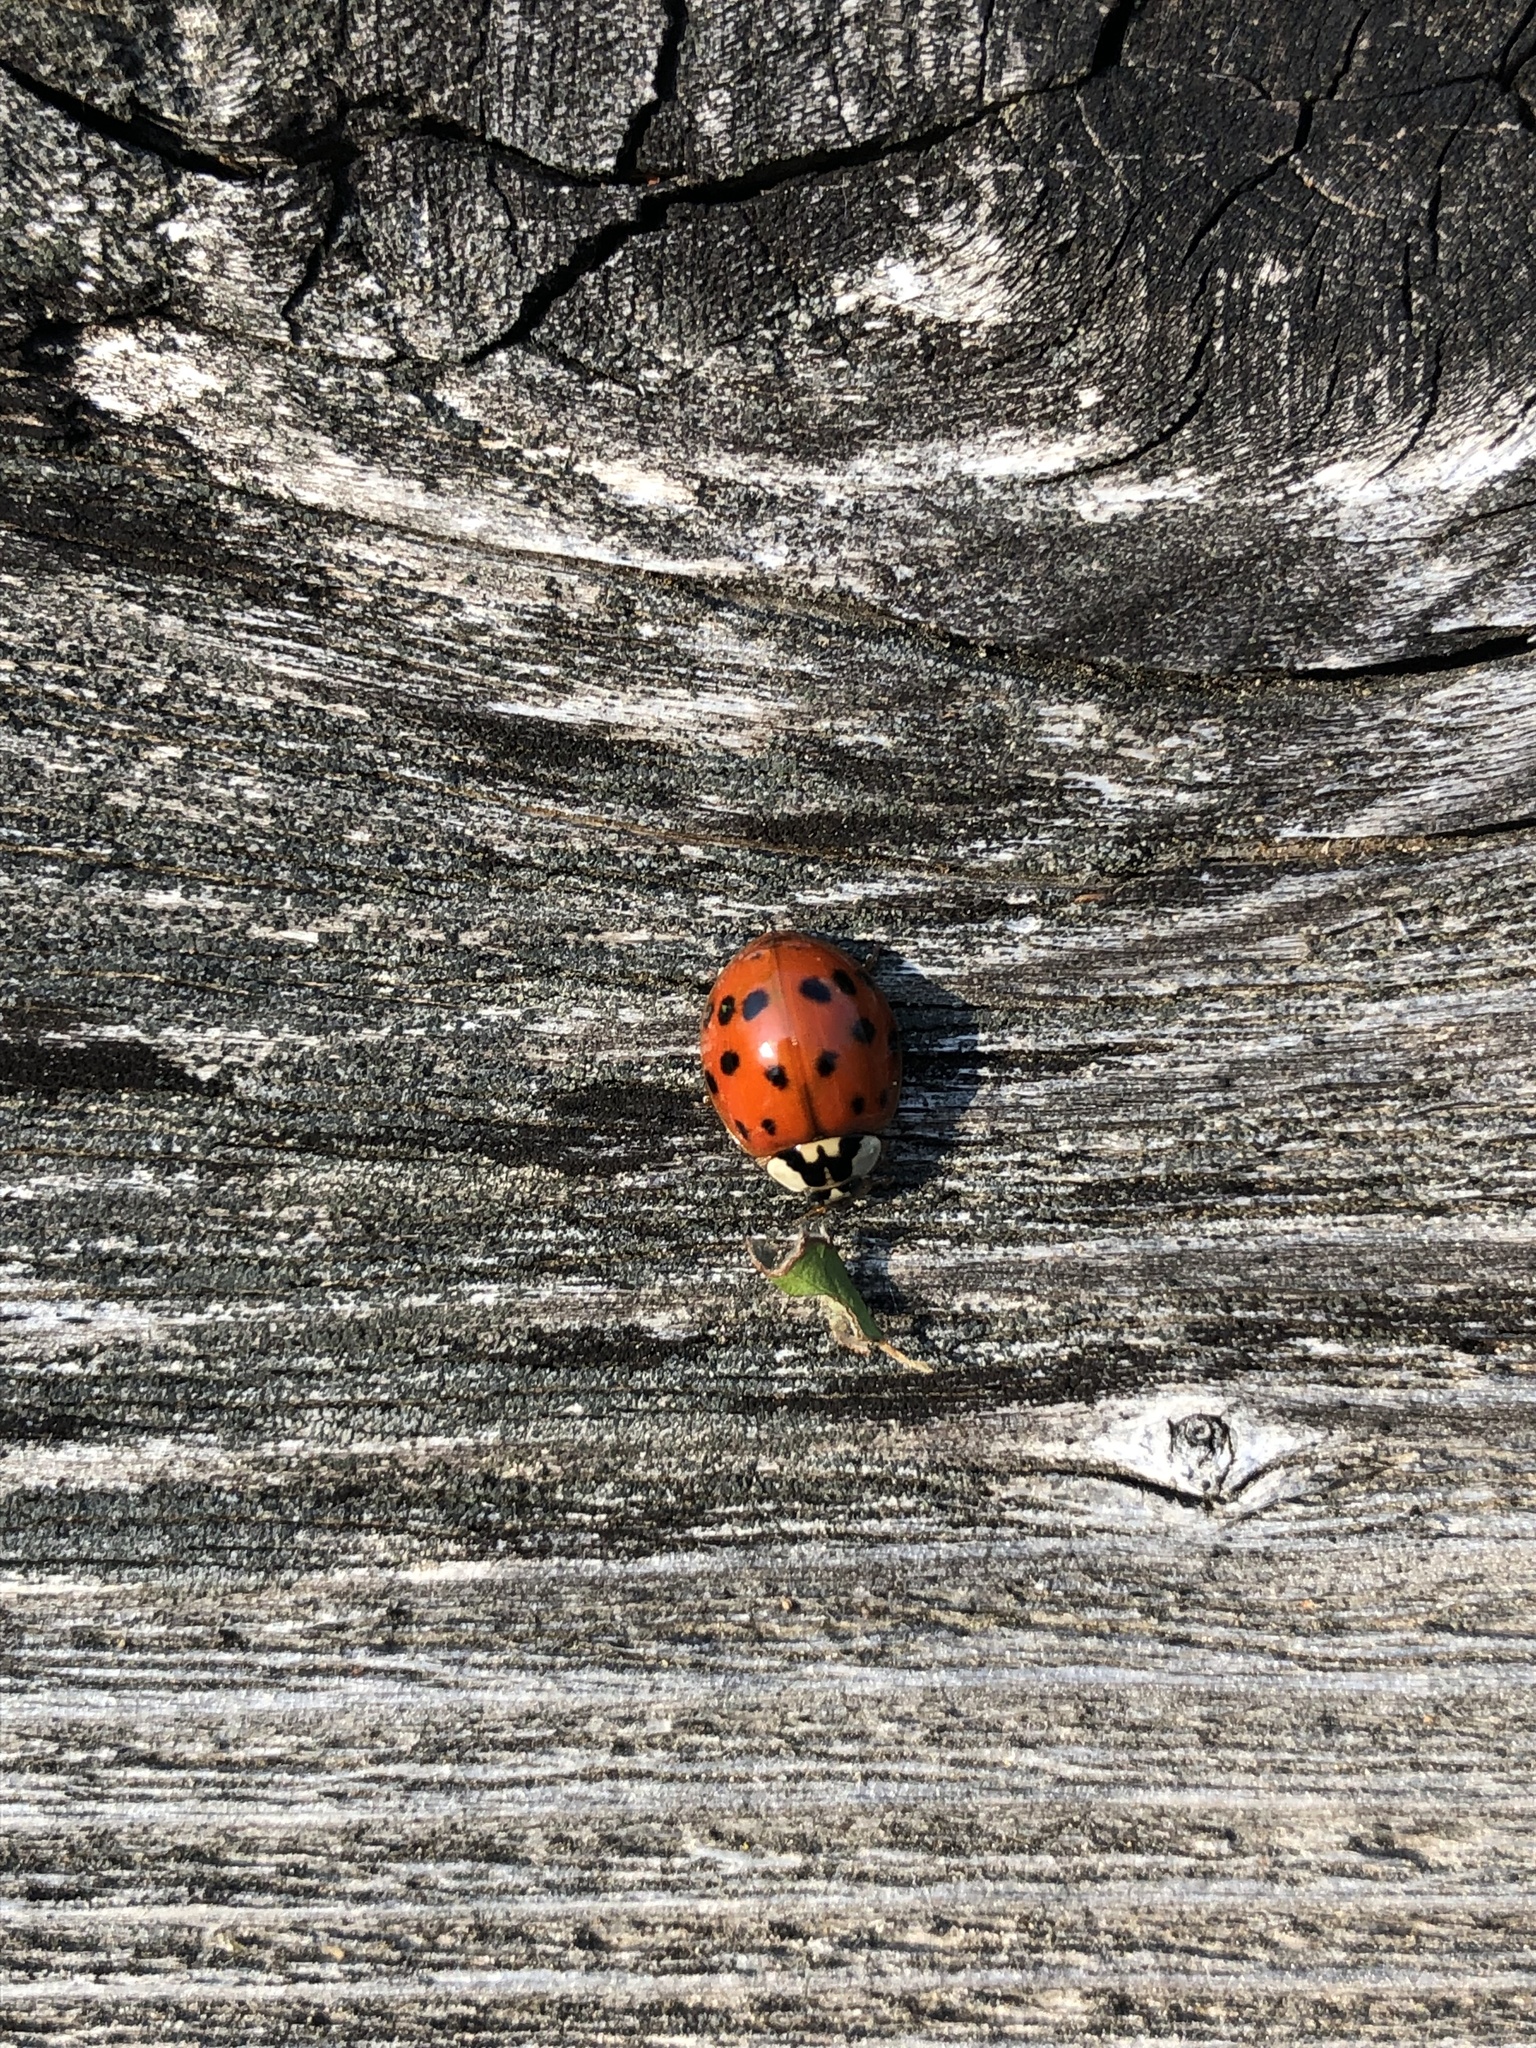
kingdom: Animalia
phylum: Arthropoda
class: Insecta
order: Coleoptera
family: Coccinellidae
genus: Harmonia
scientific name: Harmonia axyridis
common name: Harlequin ladybird
